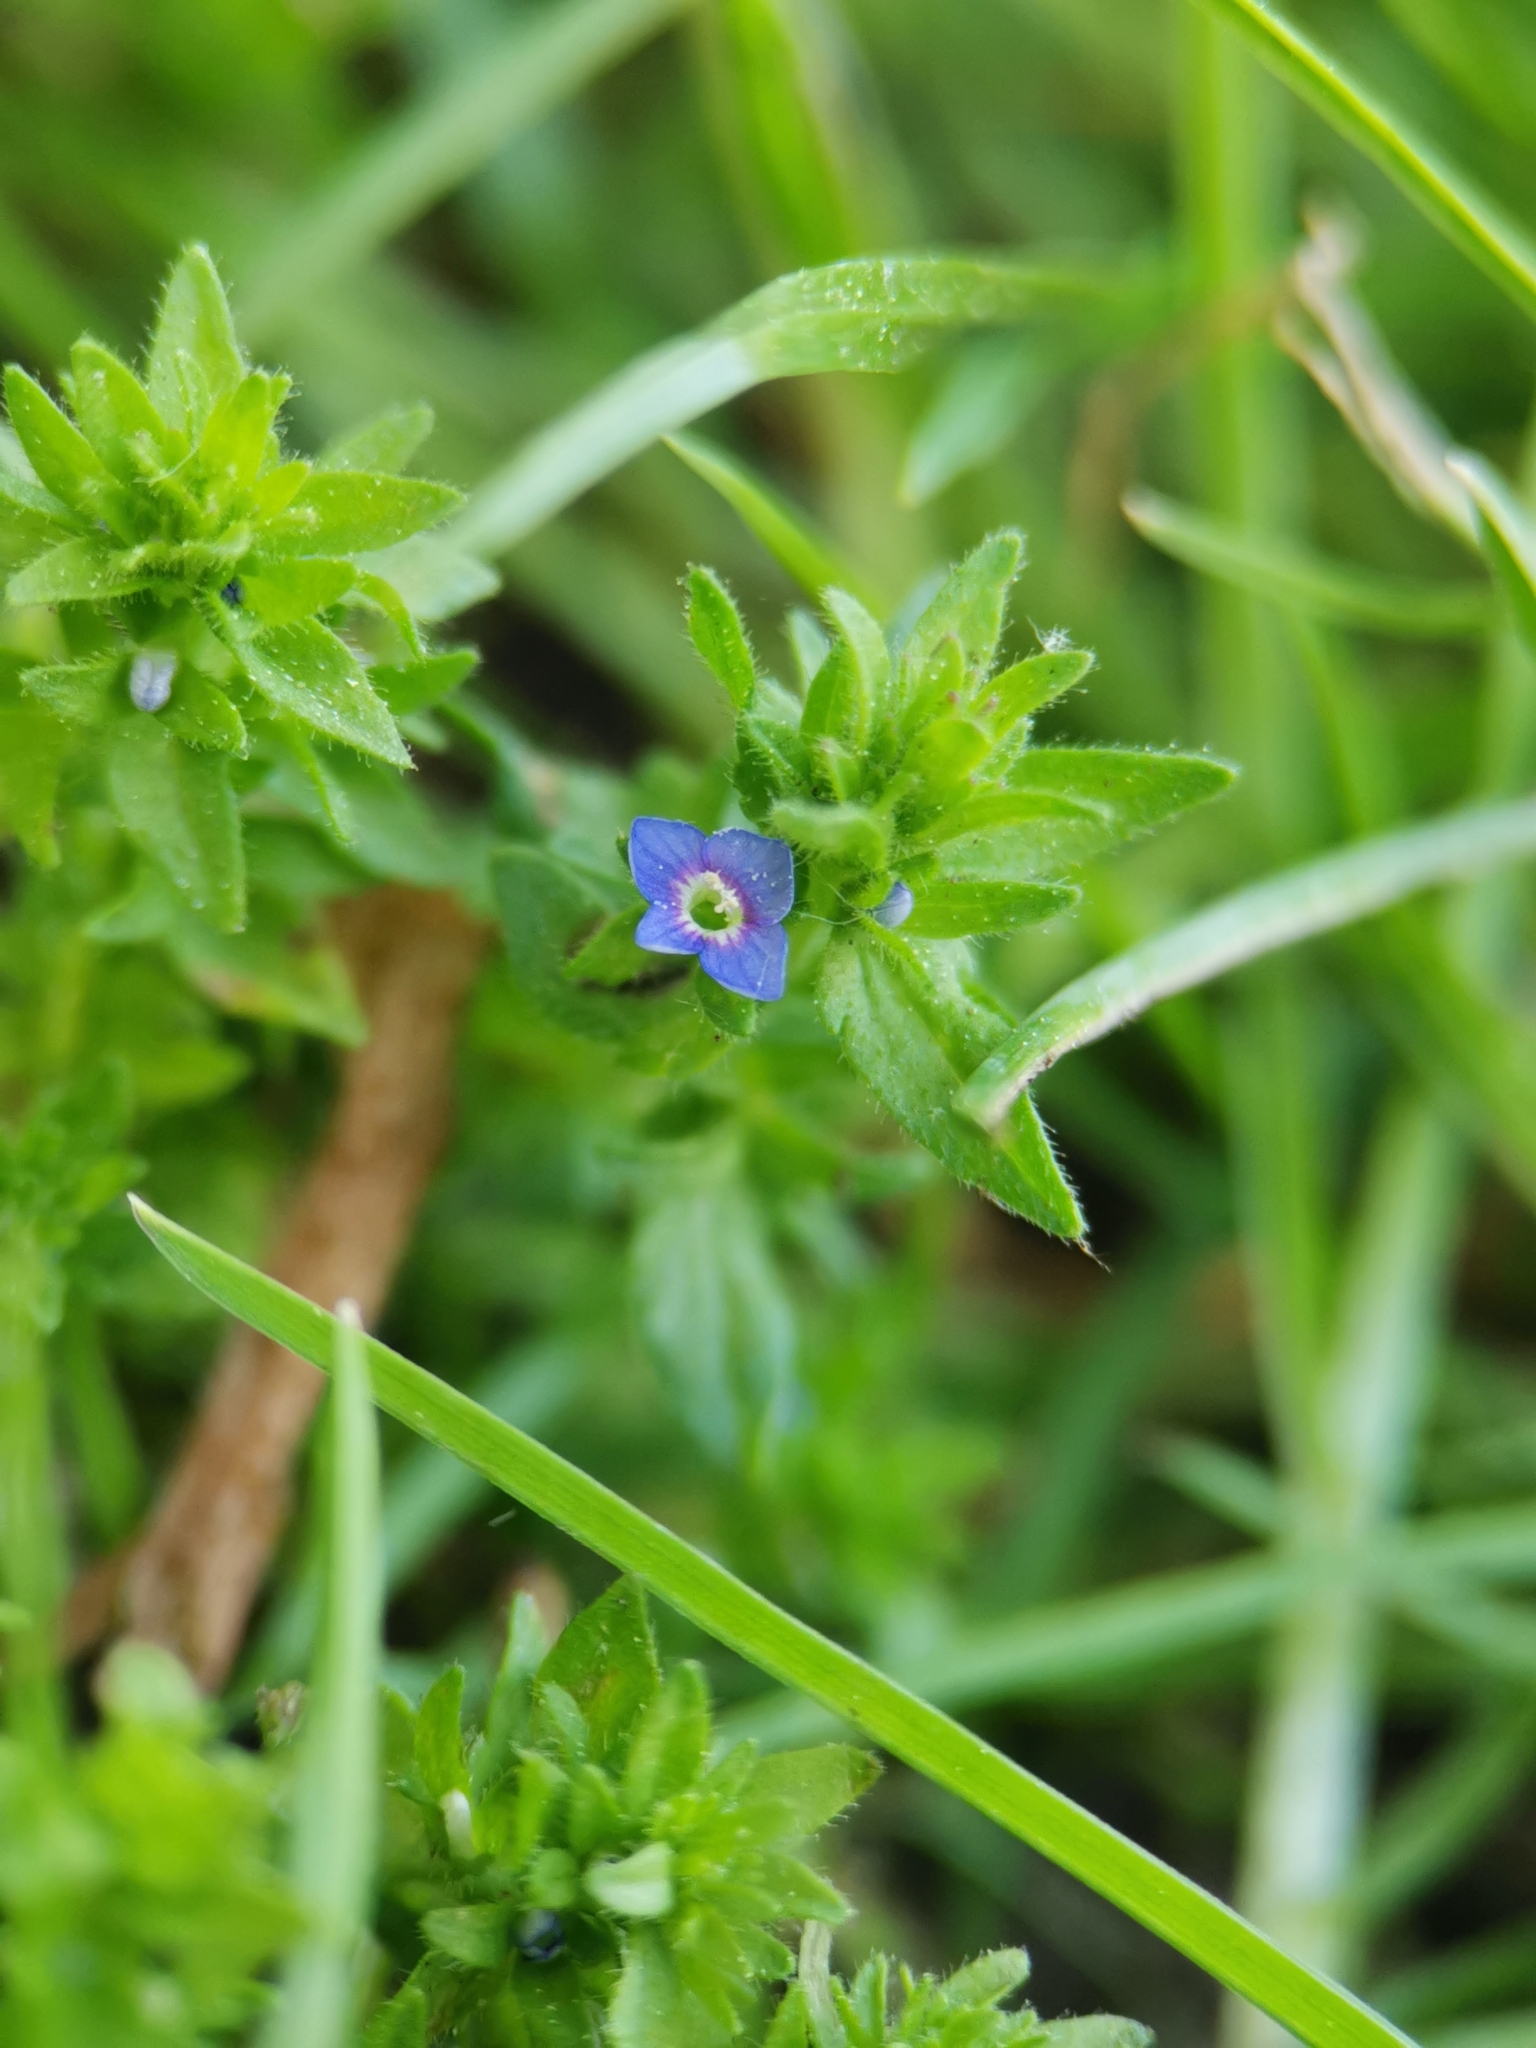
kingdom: Plantae
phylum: Tracheophyta
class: Magnoliopsida
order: Lamiales
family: Plantaginaceae
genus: Veronica
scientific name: Veronica arvensis
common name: Corn speedwell
